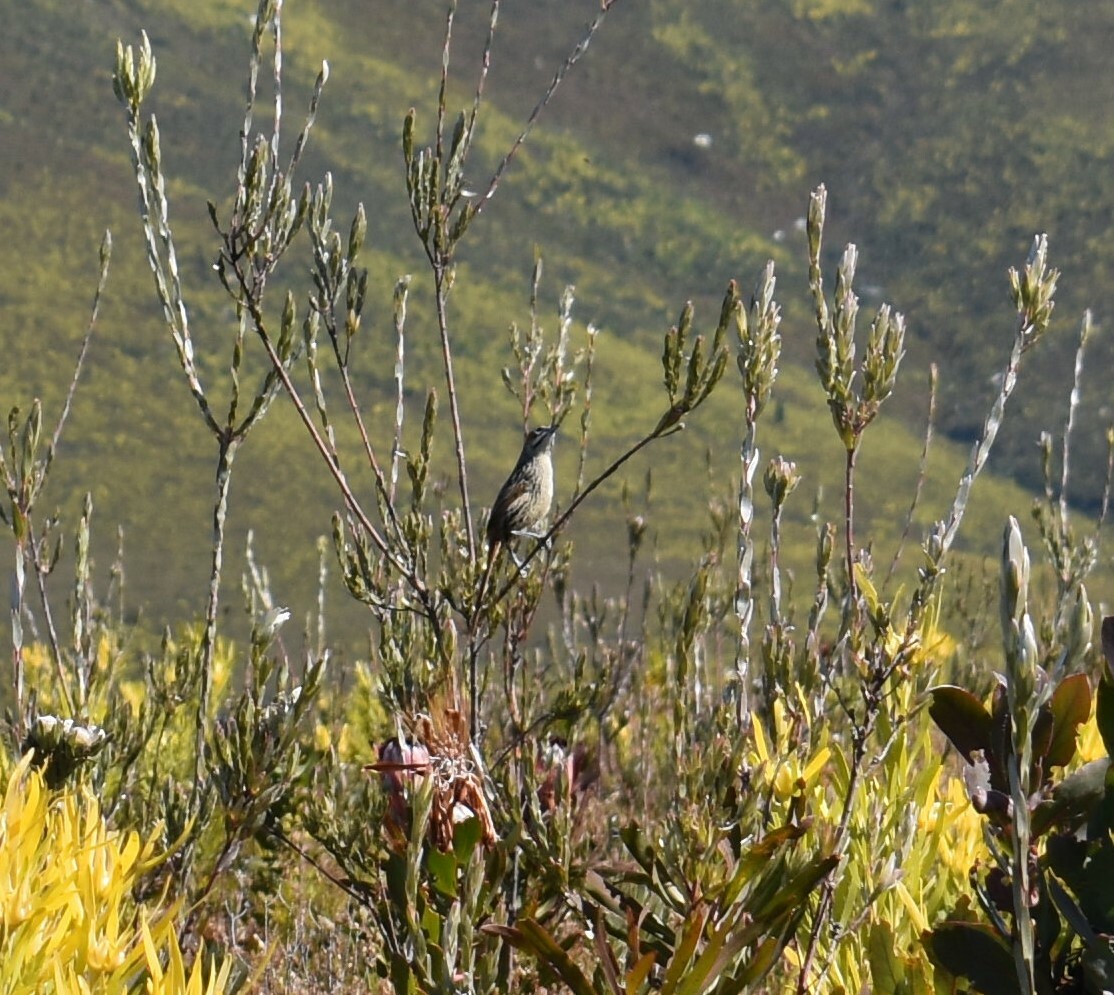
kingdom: Animalia
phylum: Chordata
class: Aves
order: Passeriformes
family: Macrosphenidae
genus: Sphenoeacus
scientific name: Sphenoeacus afer
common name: Cape grassbird
